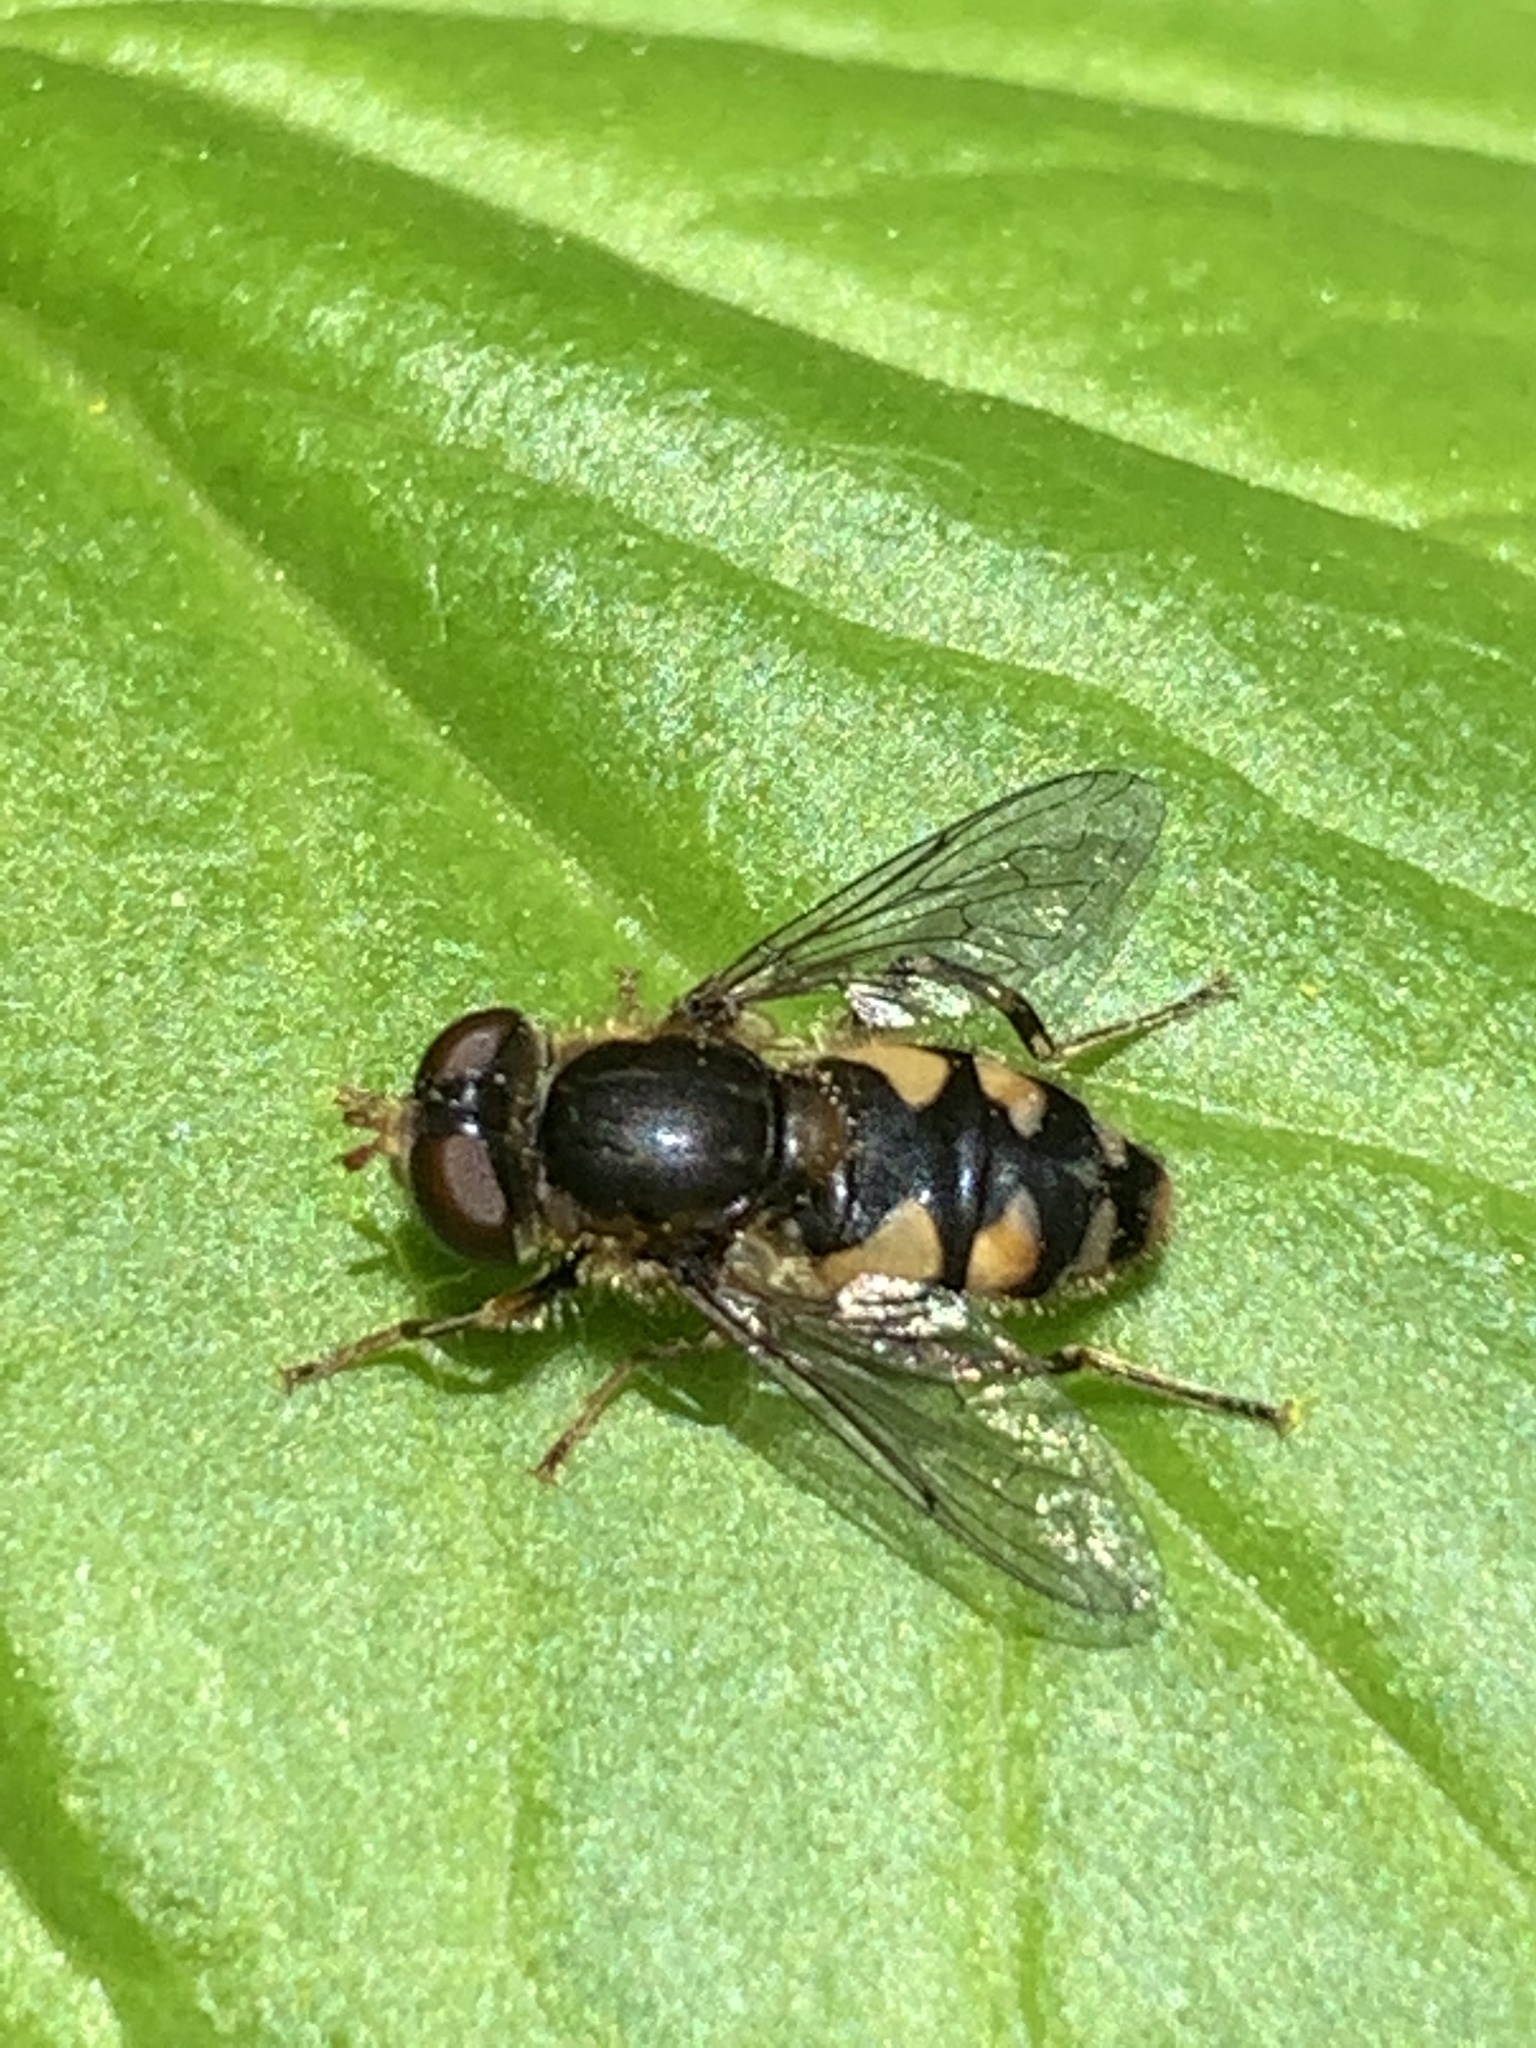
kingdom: Animalia
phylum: Arthropoda
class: Insecta
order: Diptera
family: Syrphidae
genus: Parhelophilus
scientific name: Parhelophilus rex
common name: Dusky bog fly
